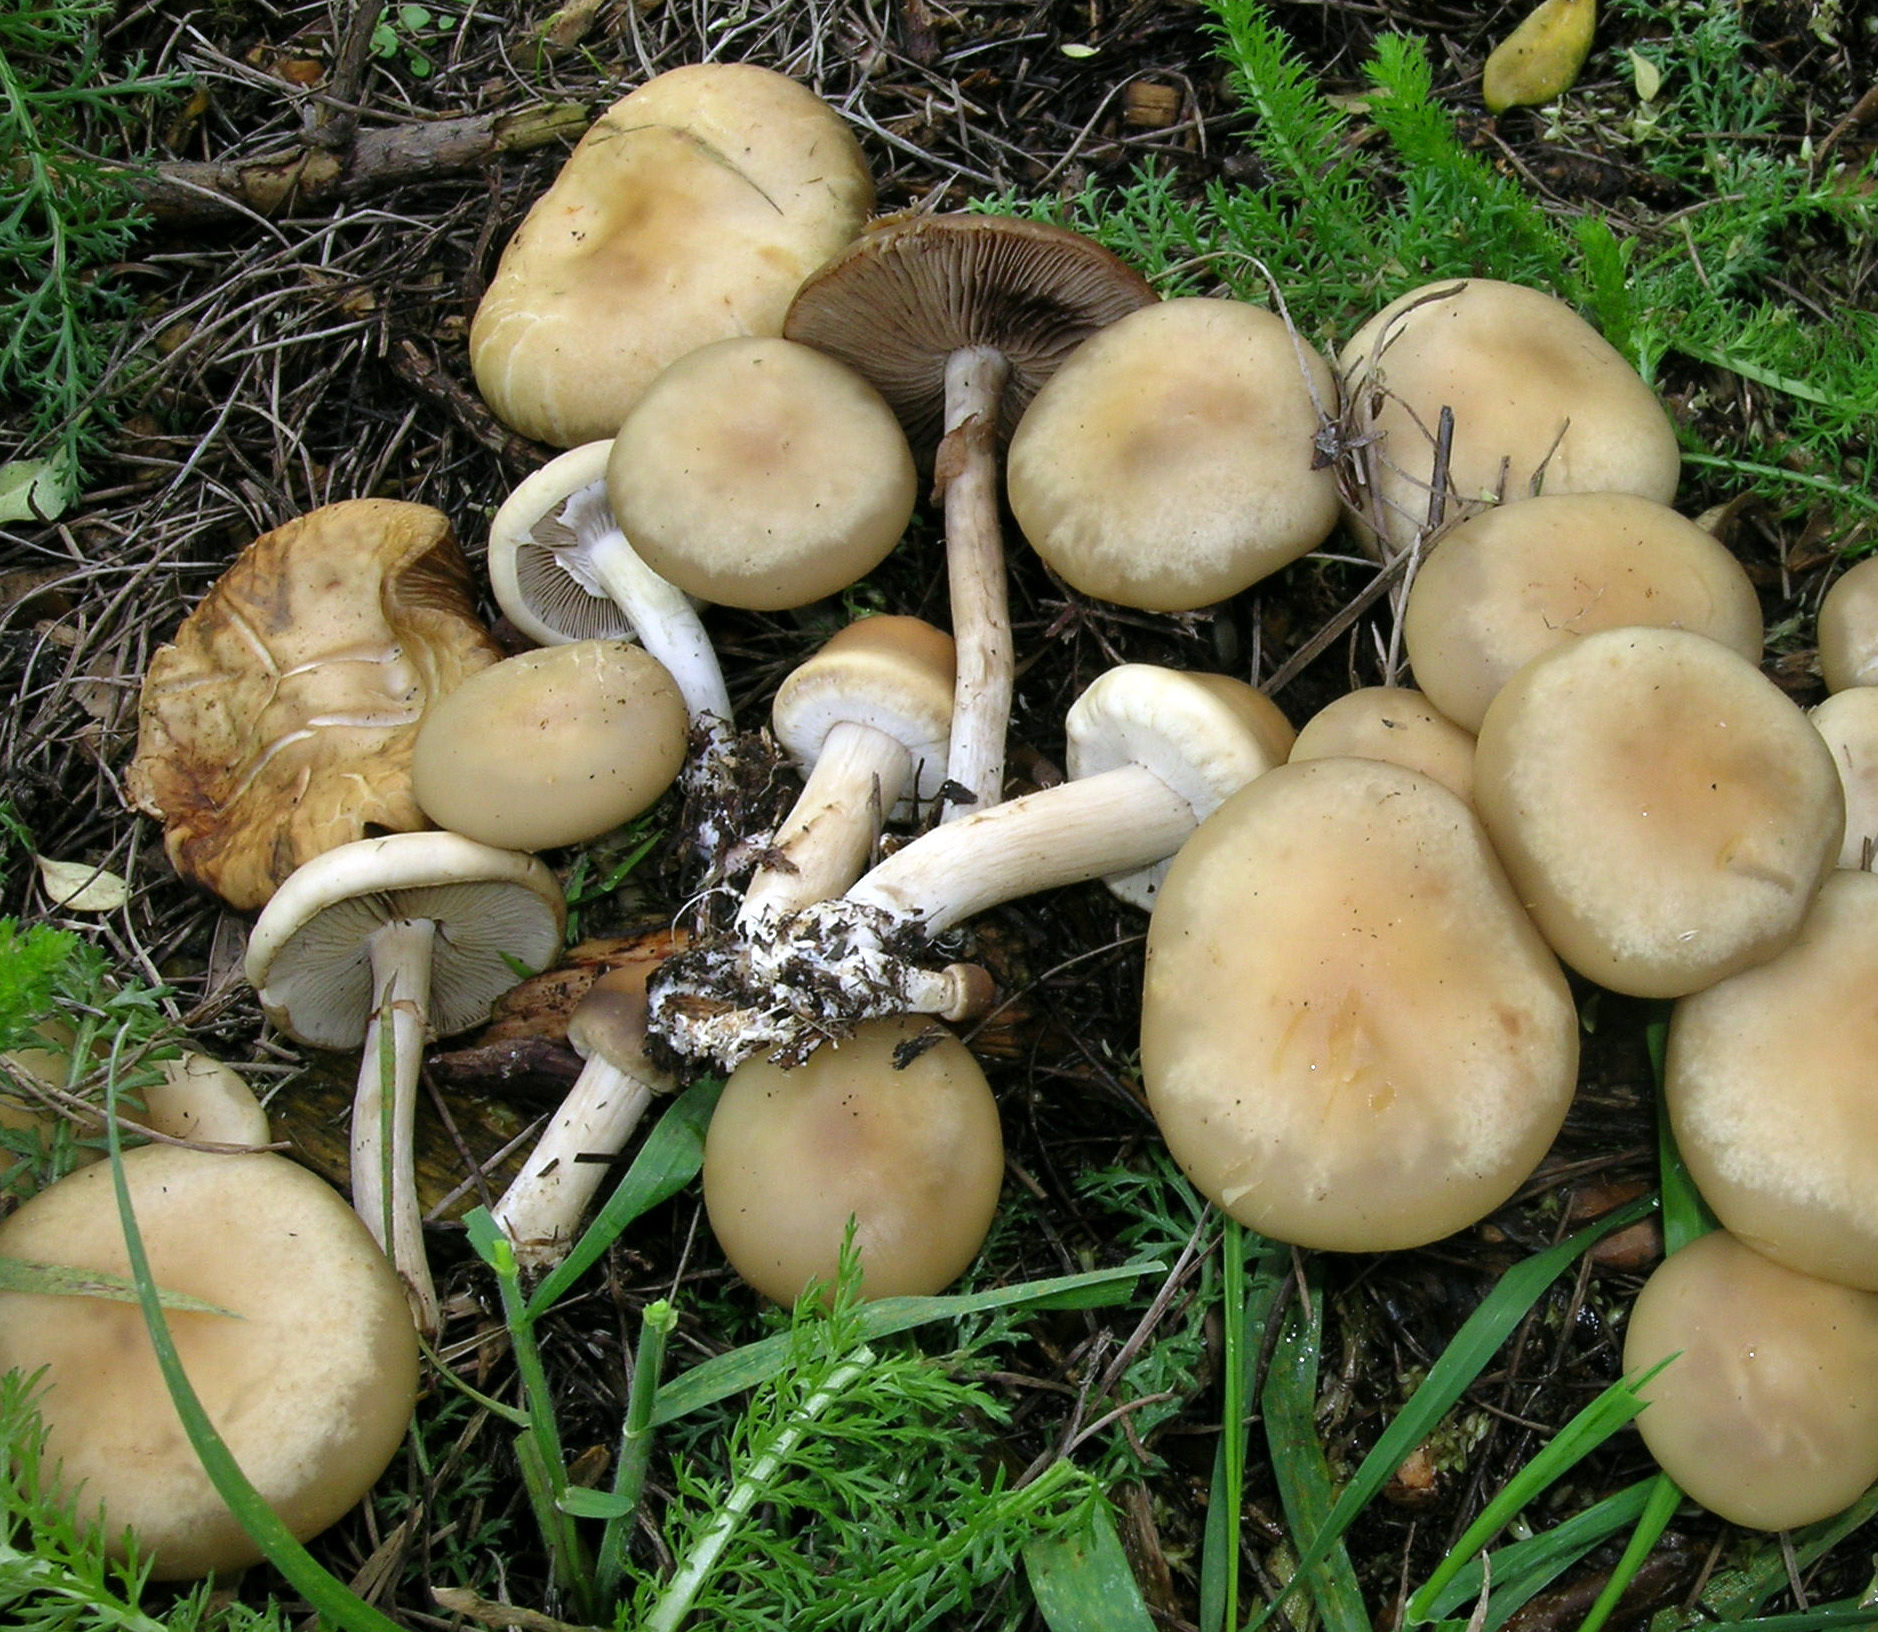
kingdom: Fungi
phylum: Basidiomycota
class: Agaricomycetes
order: Agaricales
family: Strophariaceae
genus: Agrocybe
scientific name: Agrocybe praecox
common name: Spring fieldcap
